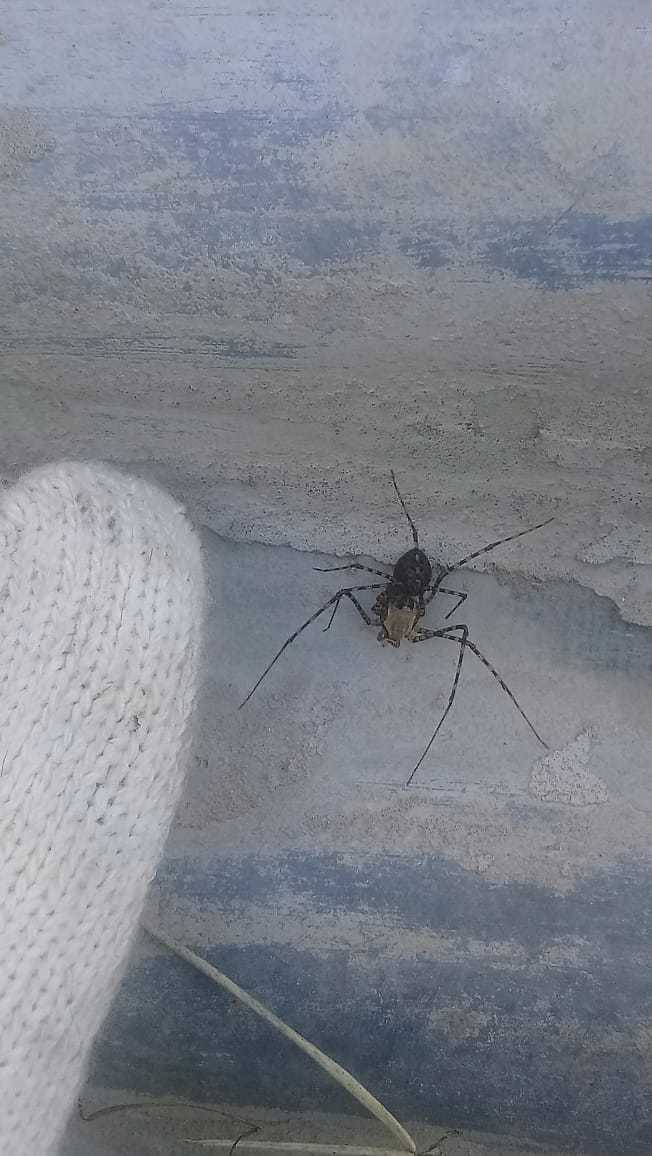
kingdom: Animalia
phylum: Arthropoda
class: Arachnida
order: Araneae
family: Scytodidae
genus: Scytodes
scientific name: Scytodes globula
